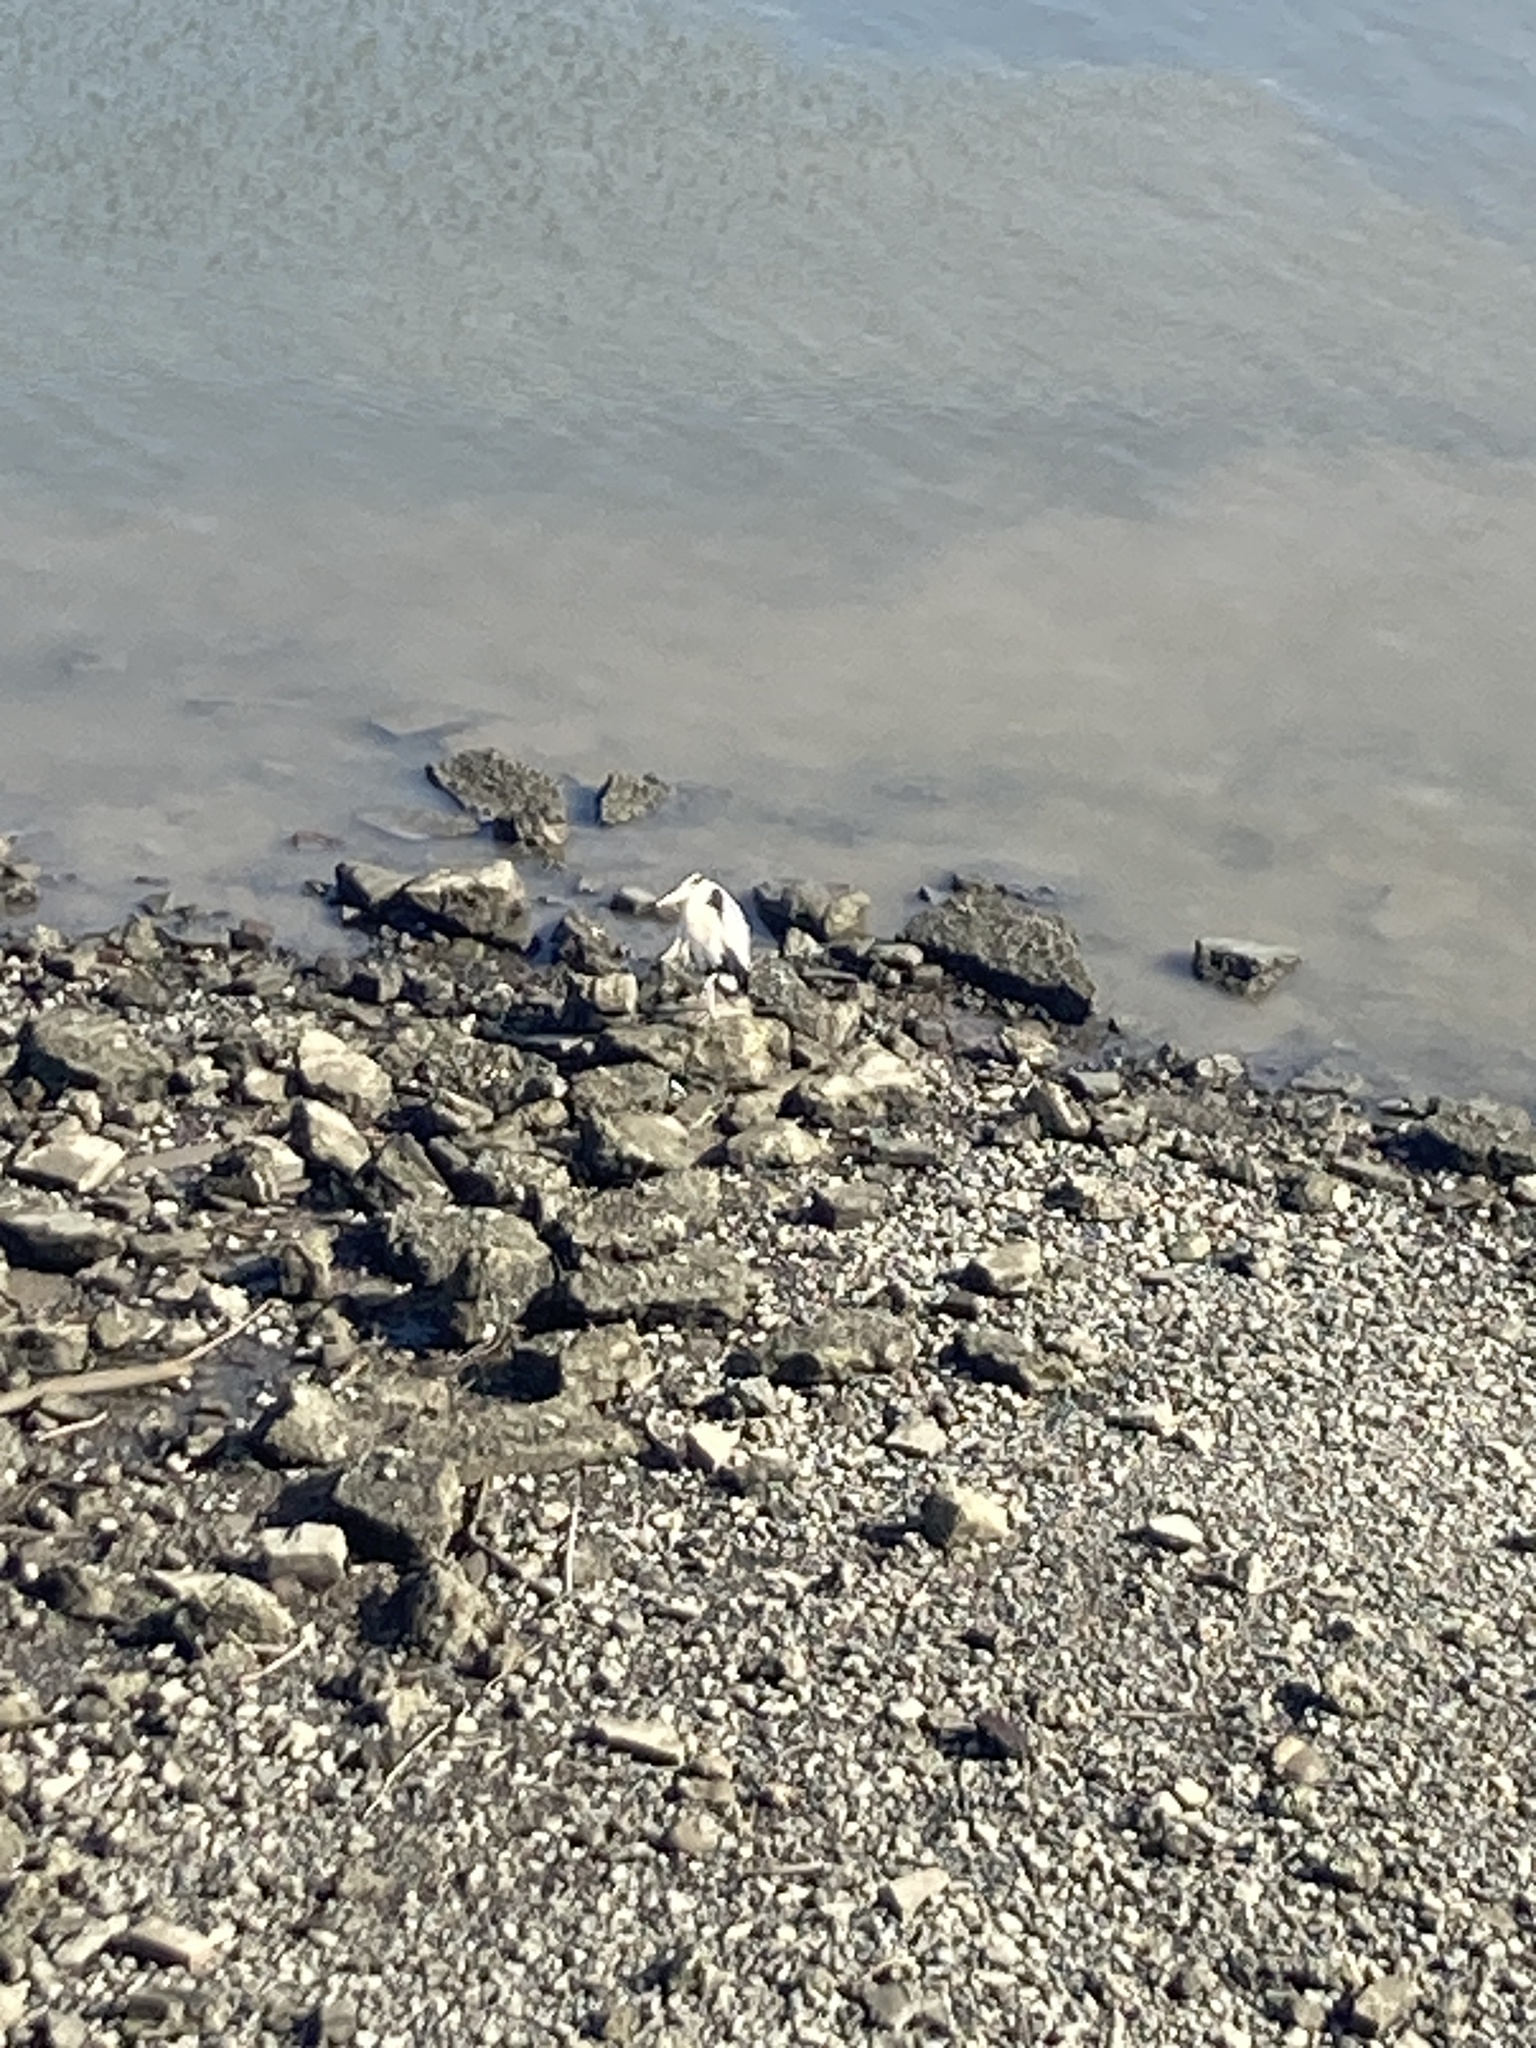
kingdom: Animalia
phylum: Chordata
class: Aves
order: Pelecaniformes
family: Ardeidae
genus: Ardea
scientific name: Ardea cinerea
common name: Grey heron
